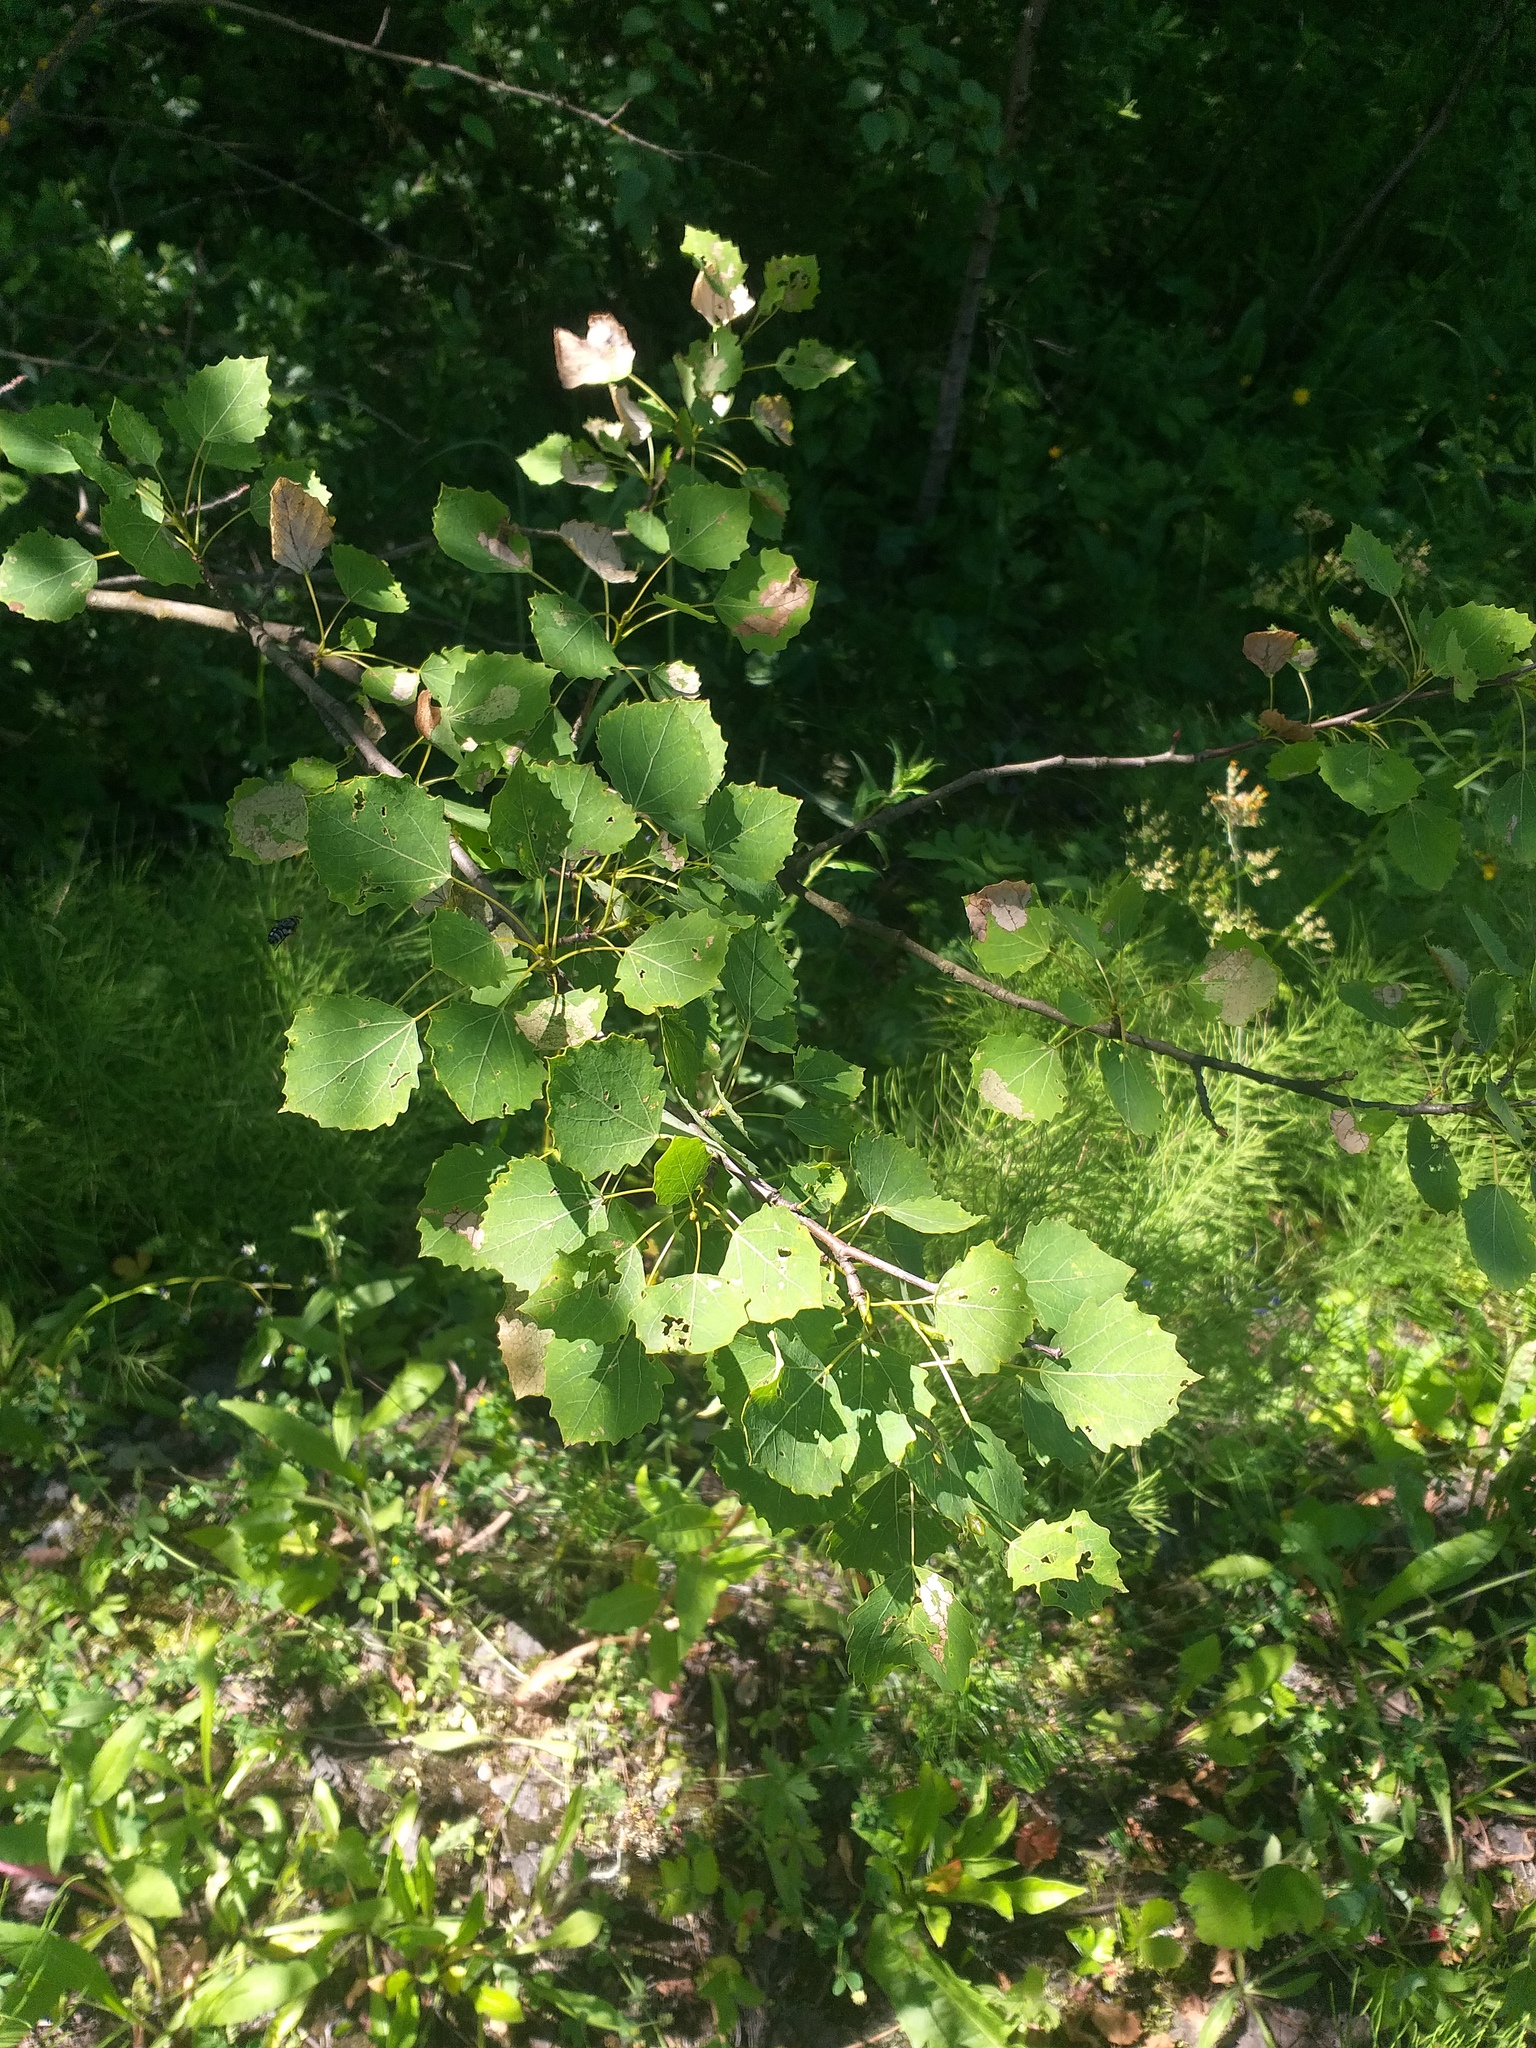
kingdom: Plantae
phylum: Tracheophyta
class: Magnoliopsida
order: Malpighiales
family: Salicaceae
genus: Populus
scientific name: Populus tremula
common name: European aspen
